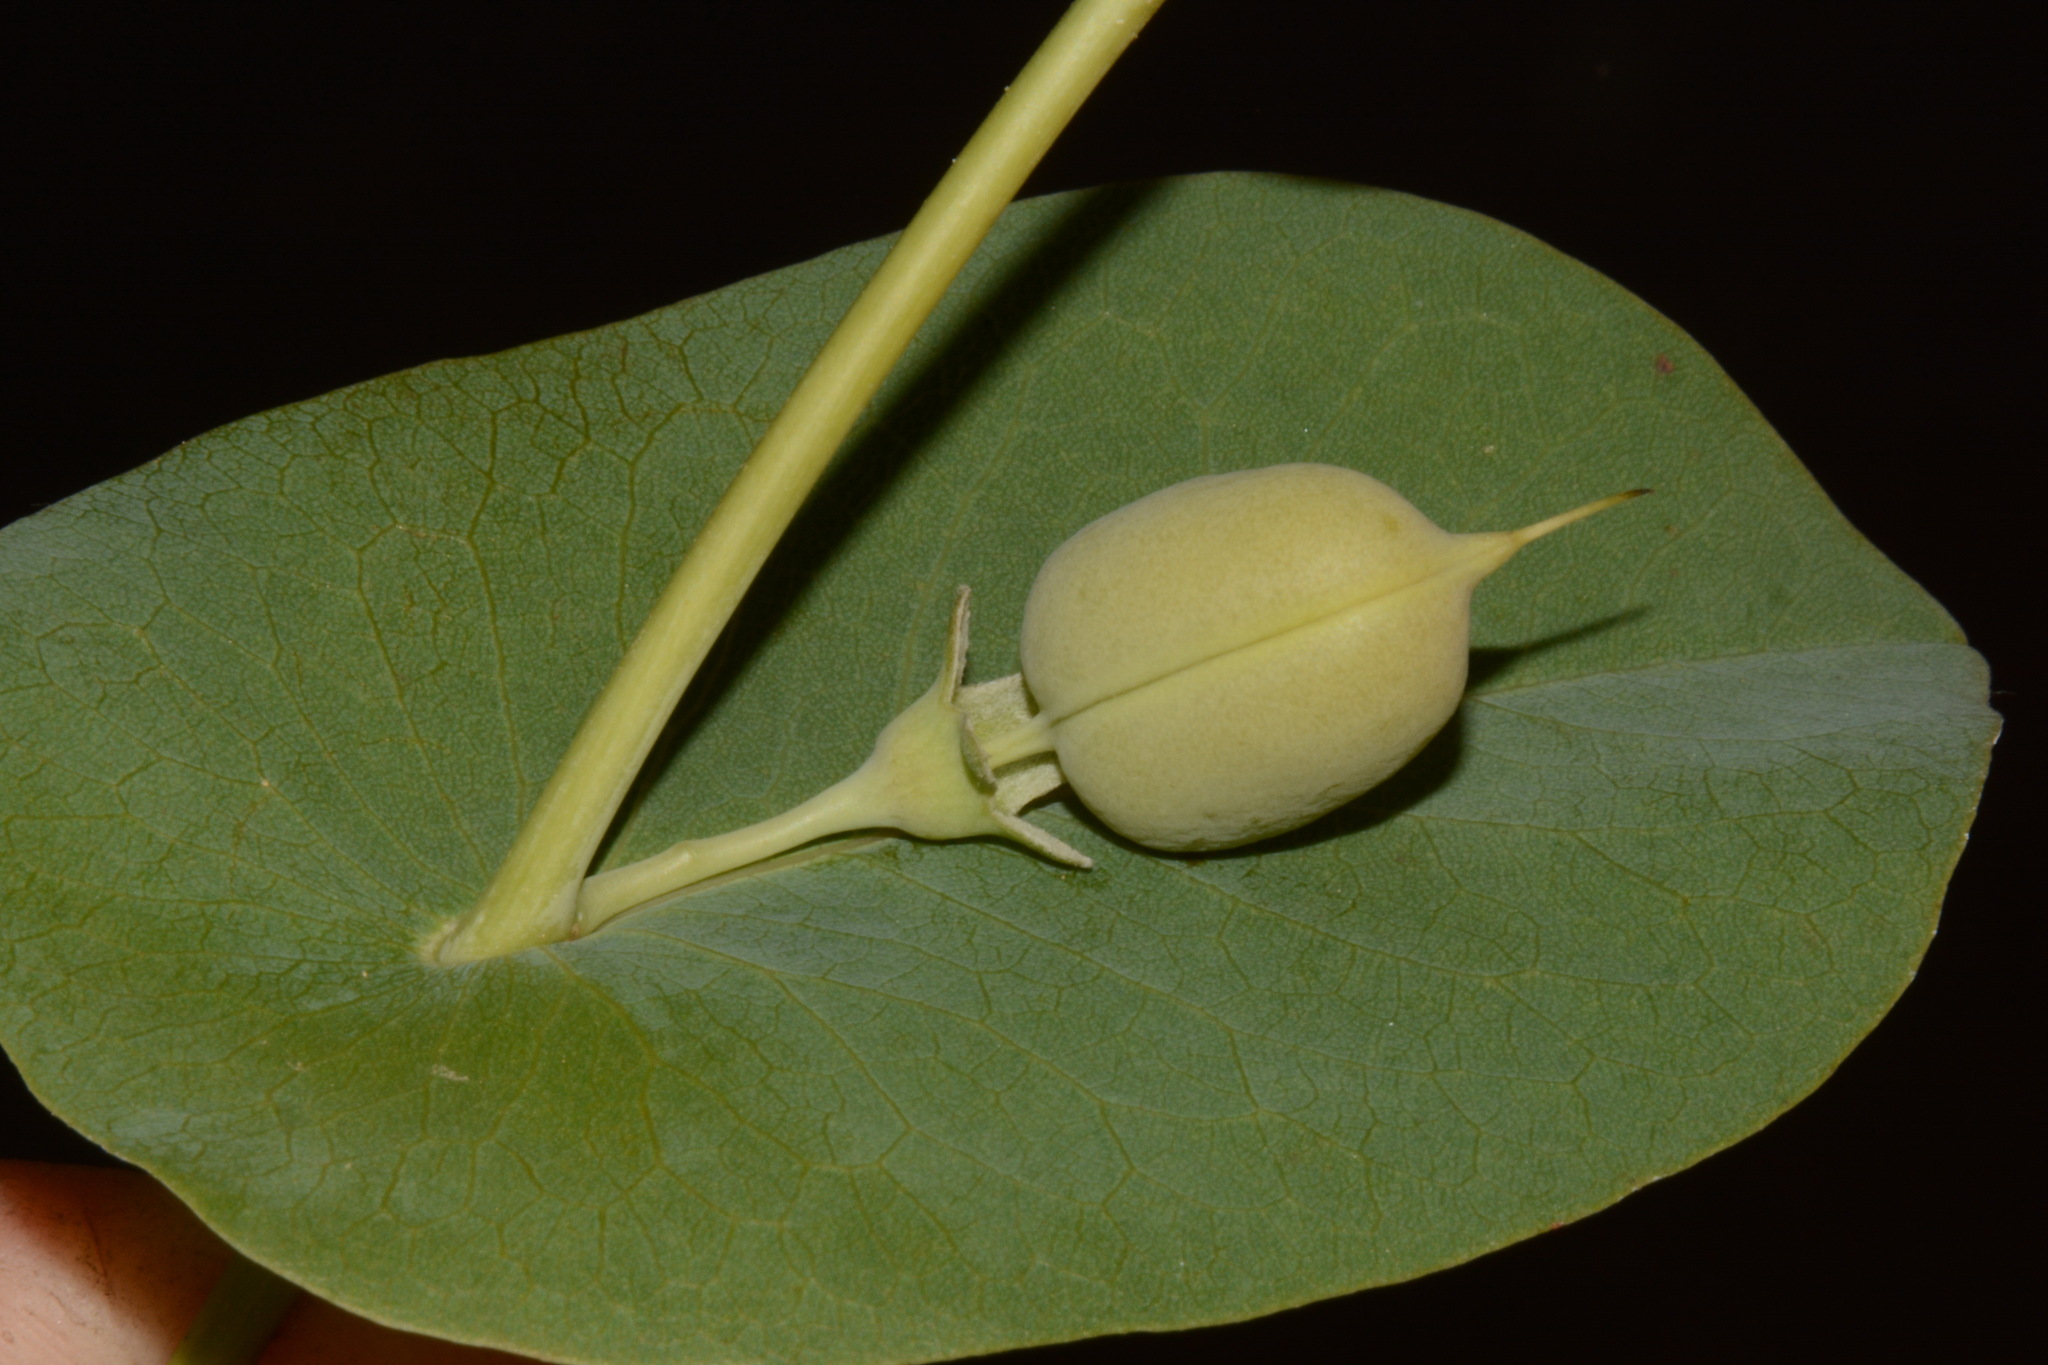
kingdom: Plantae
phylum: Tracheophyta
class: Magnoliopsida
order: Fabales
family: Fabaceae
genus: Baptisia
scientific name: Baptisia perfoliata
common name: Catbells
